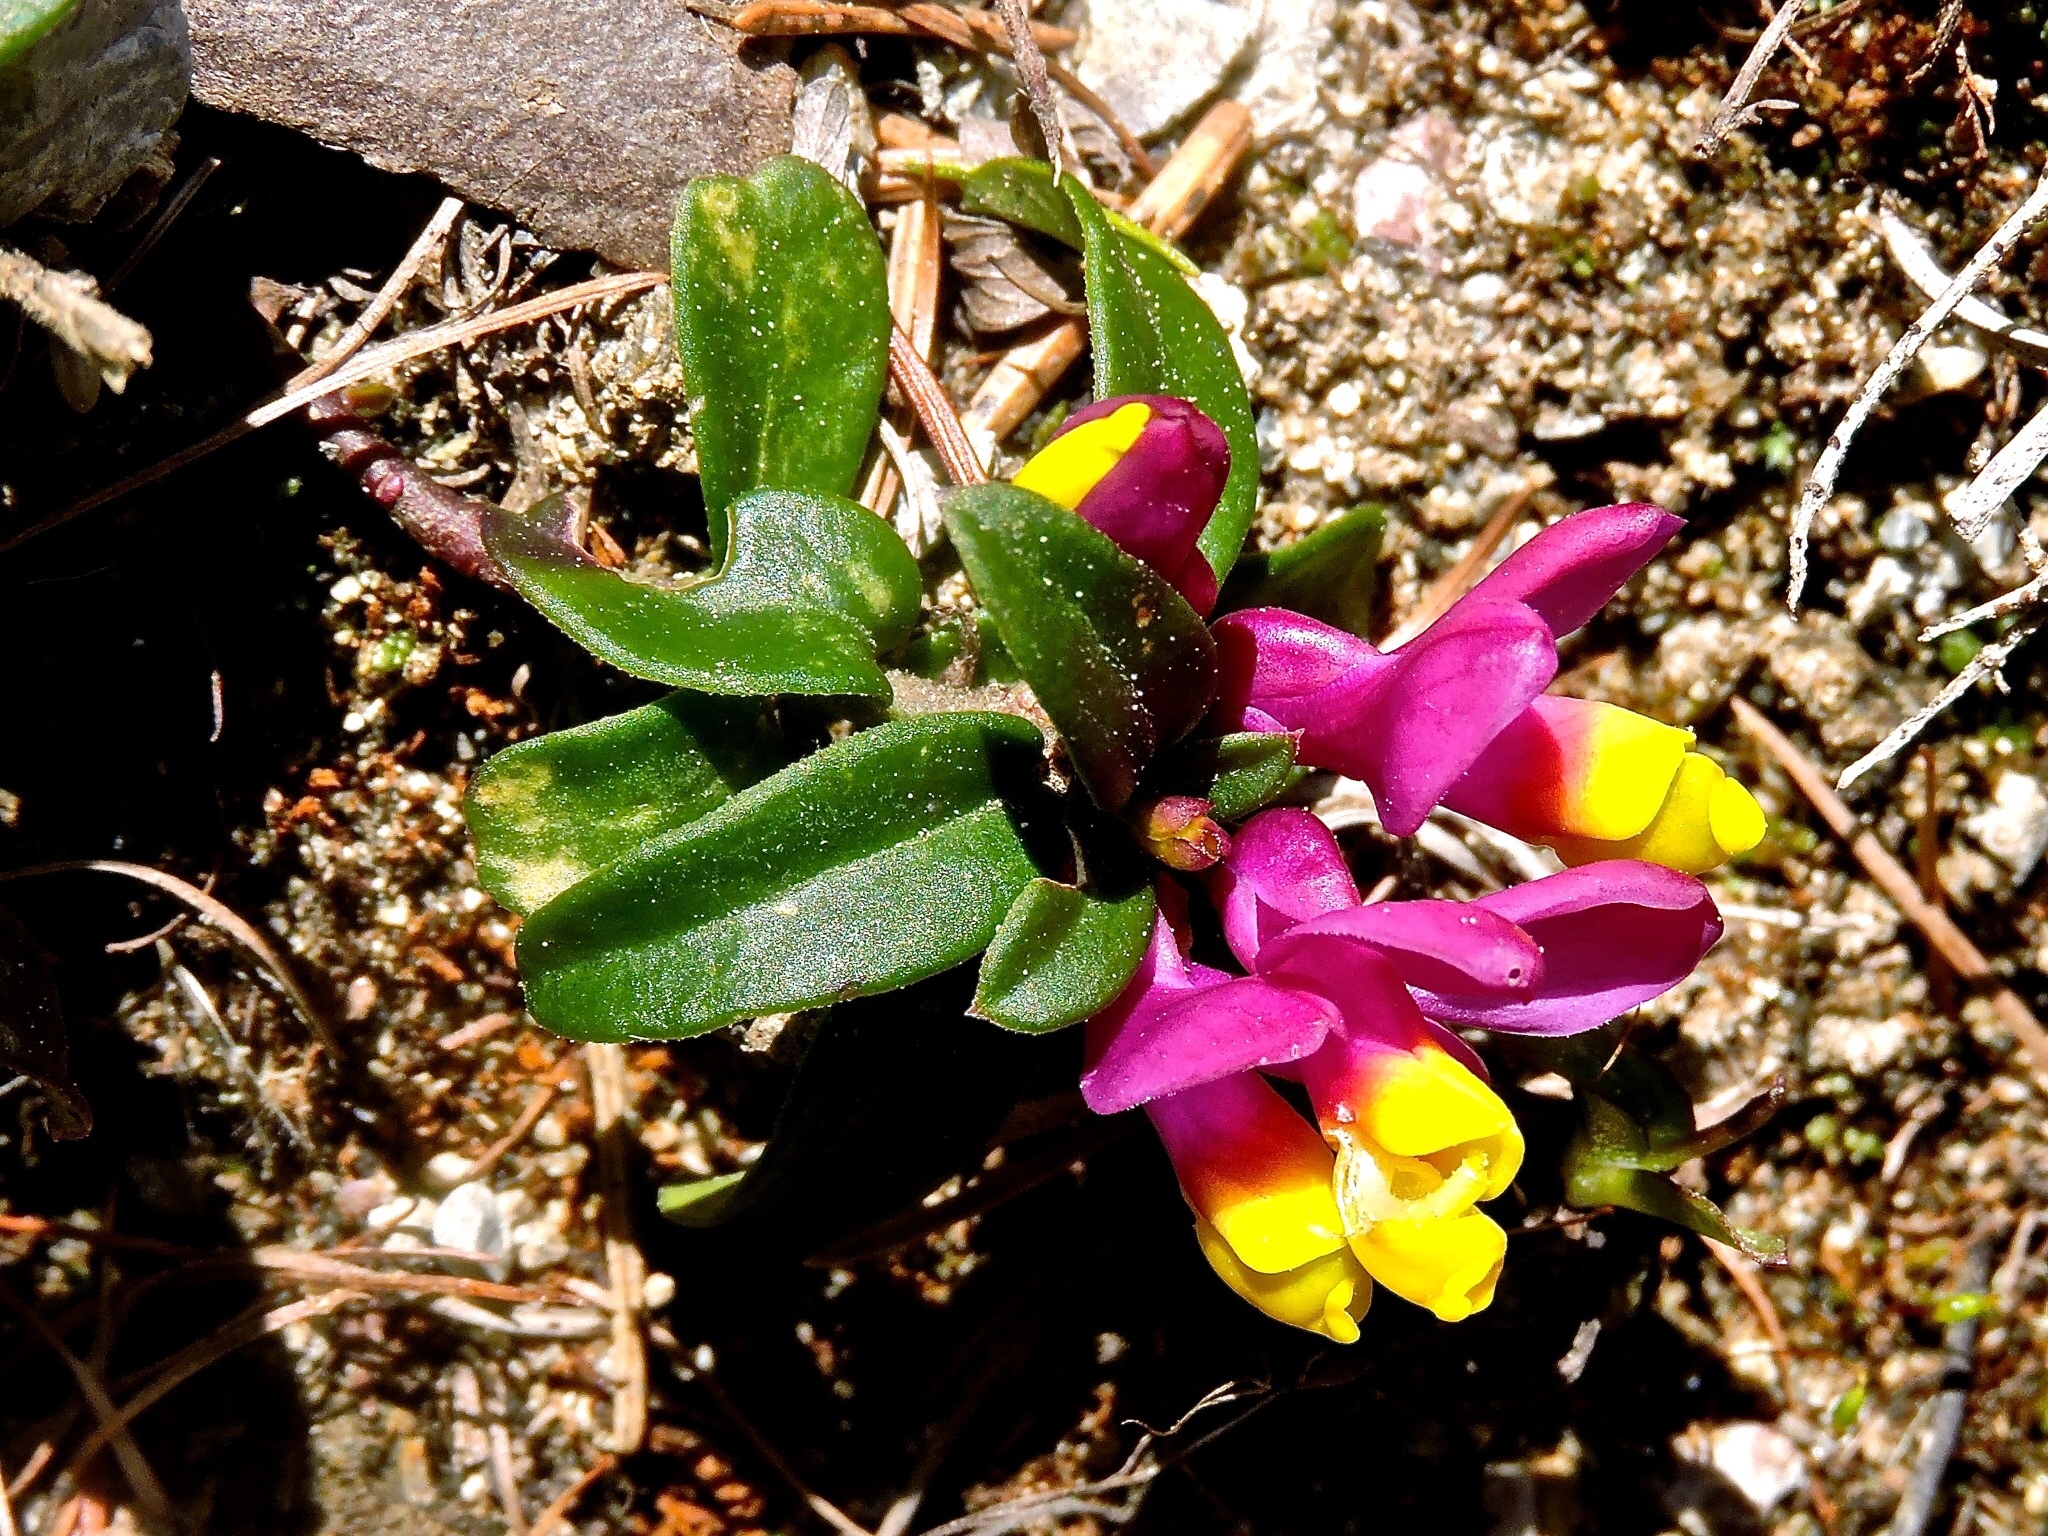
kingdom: Plantae
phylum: Tracheophyta
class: Magnoliopsida
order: Fabales
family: Polygalaceae
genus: Polygaloides
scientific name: Polygaloides chamaebuxus
